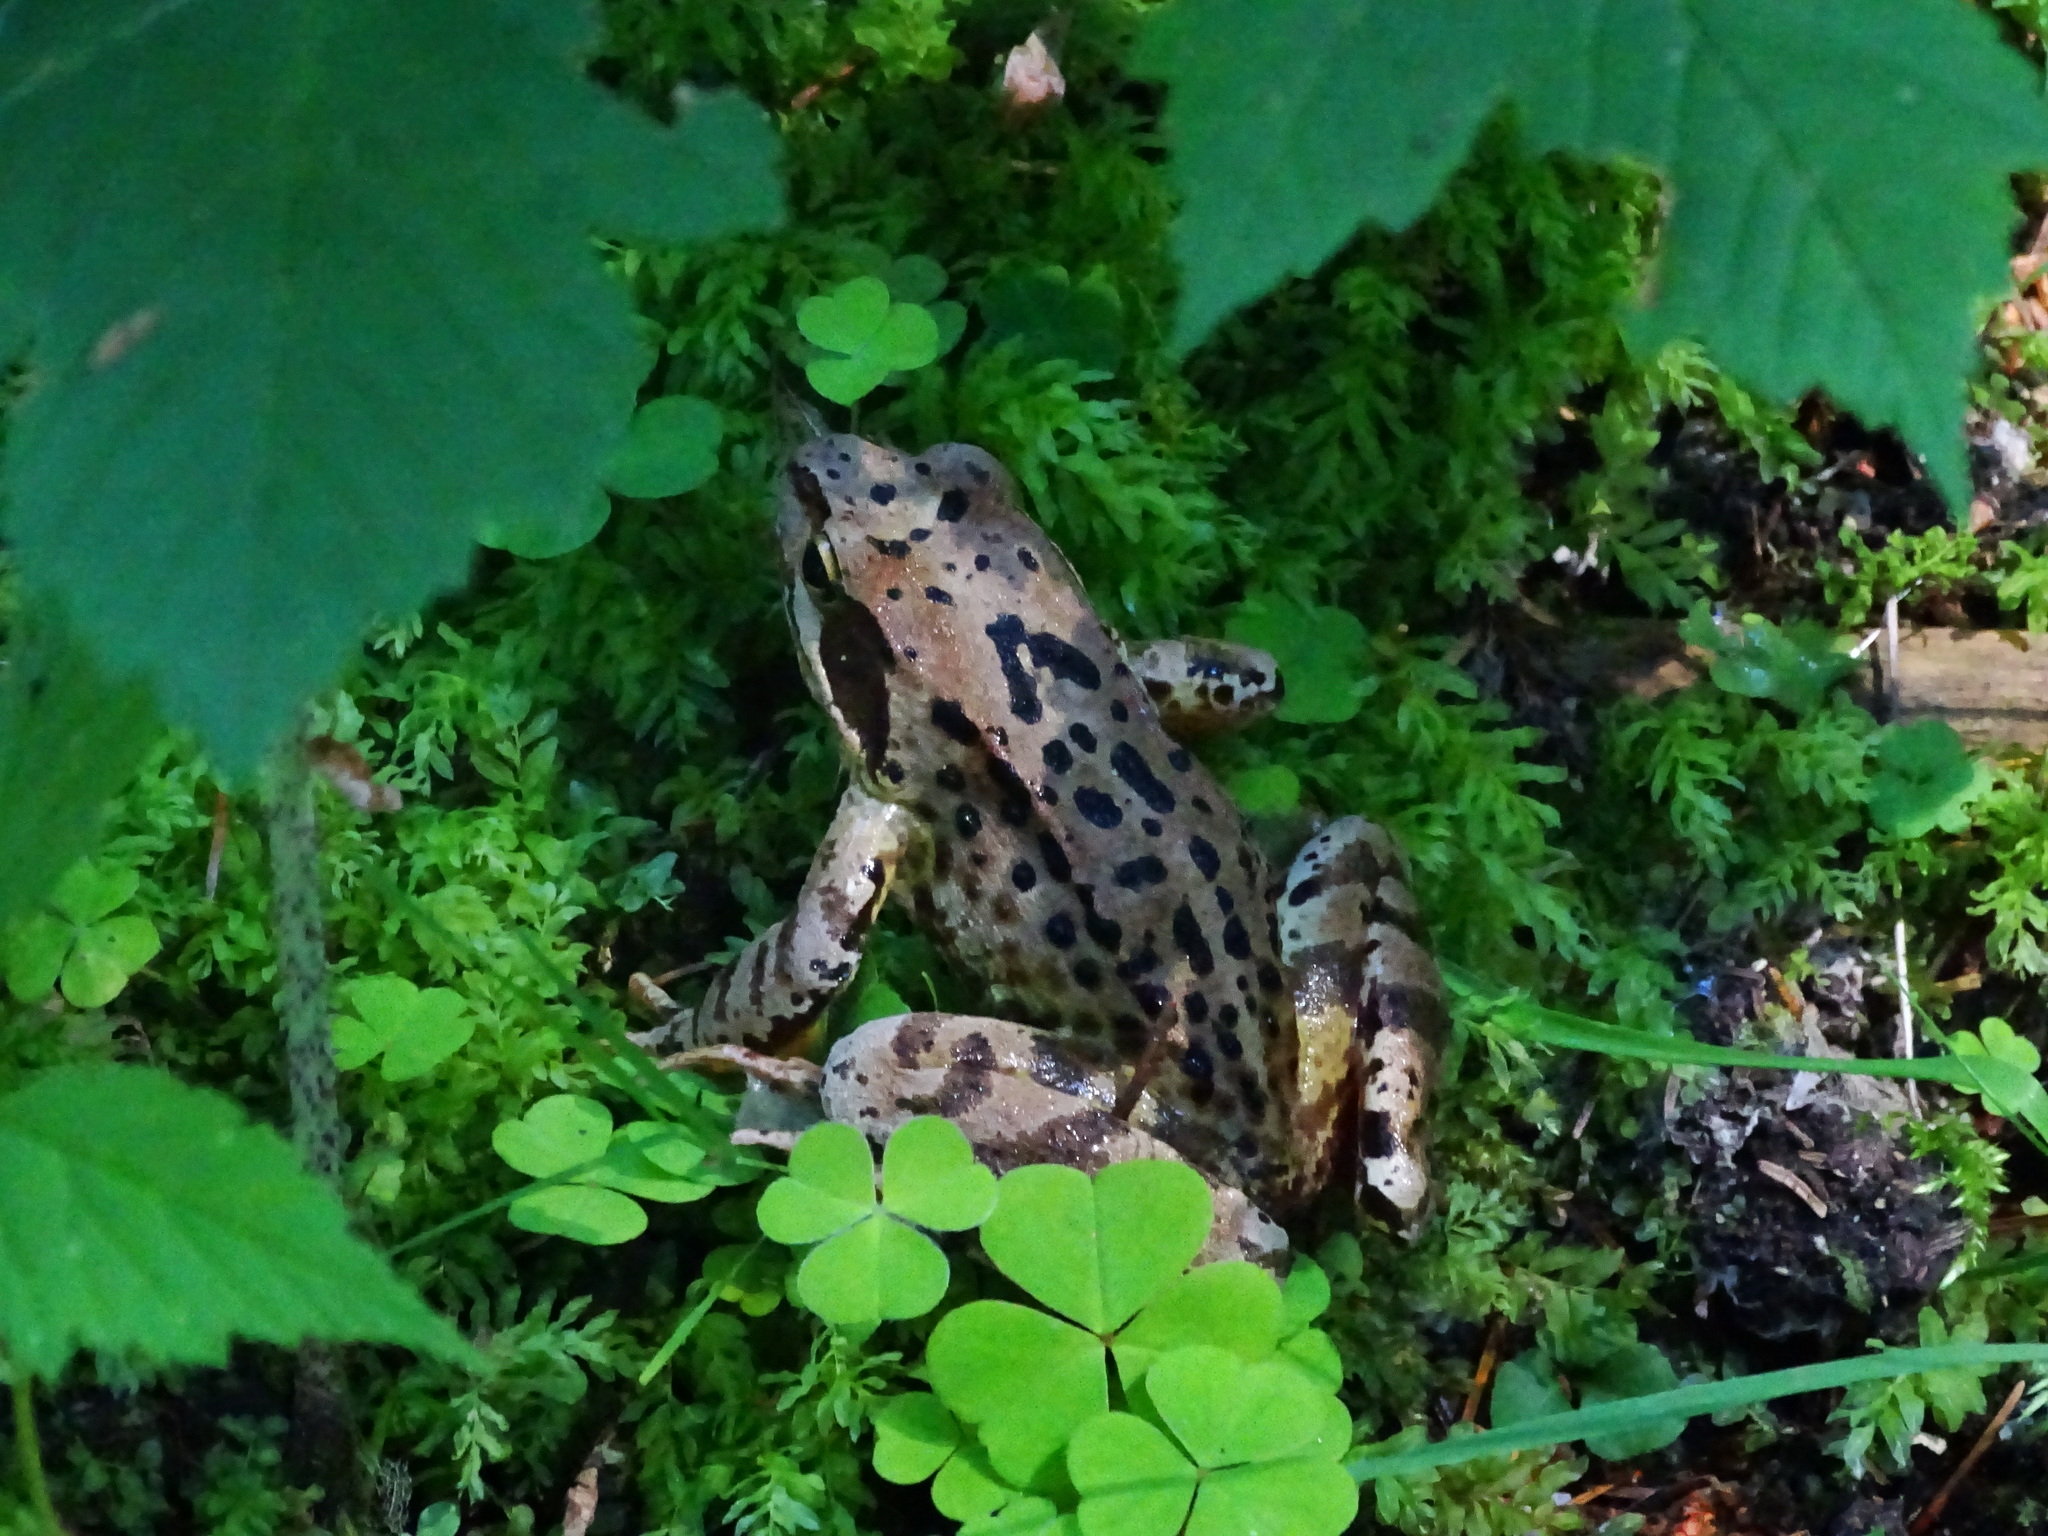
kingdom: Animalia
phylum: Chordata
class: Amphibia
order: Anura
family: Ranidae
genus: Rana
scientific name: Rana temporaria
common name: Common frog
